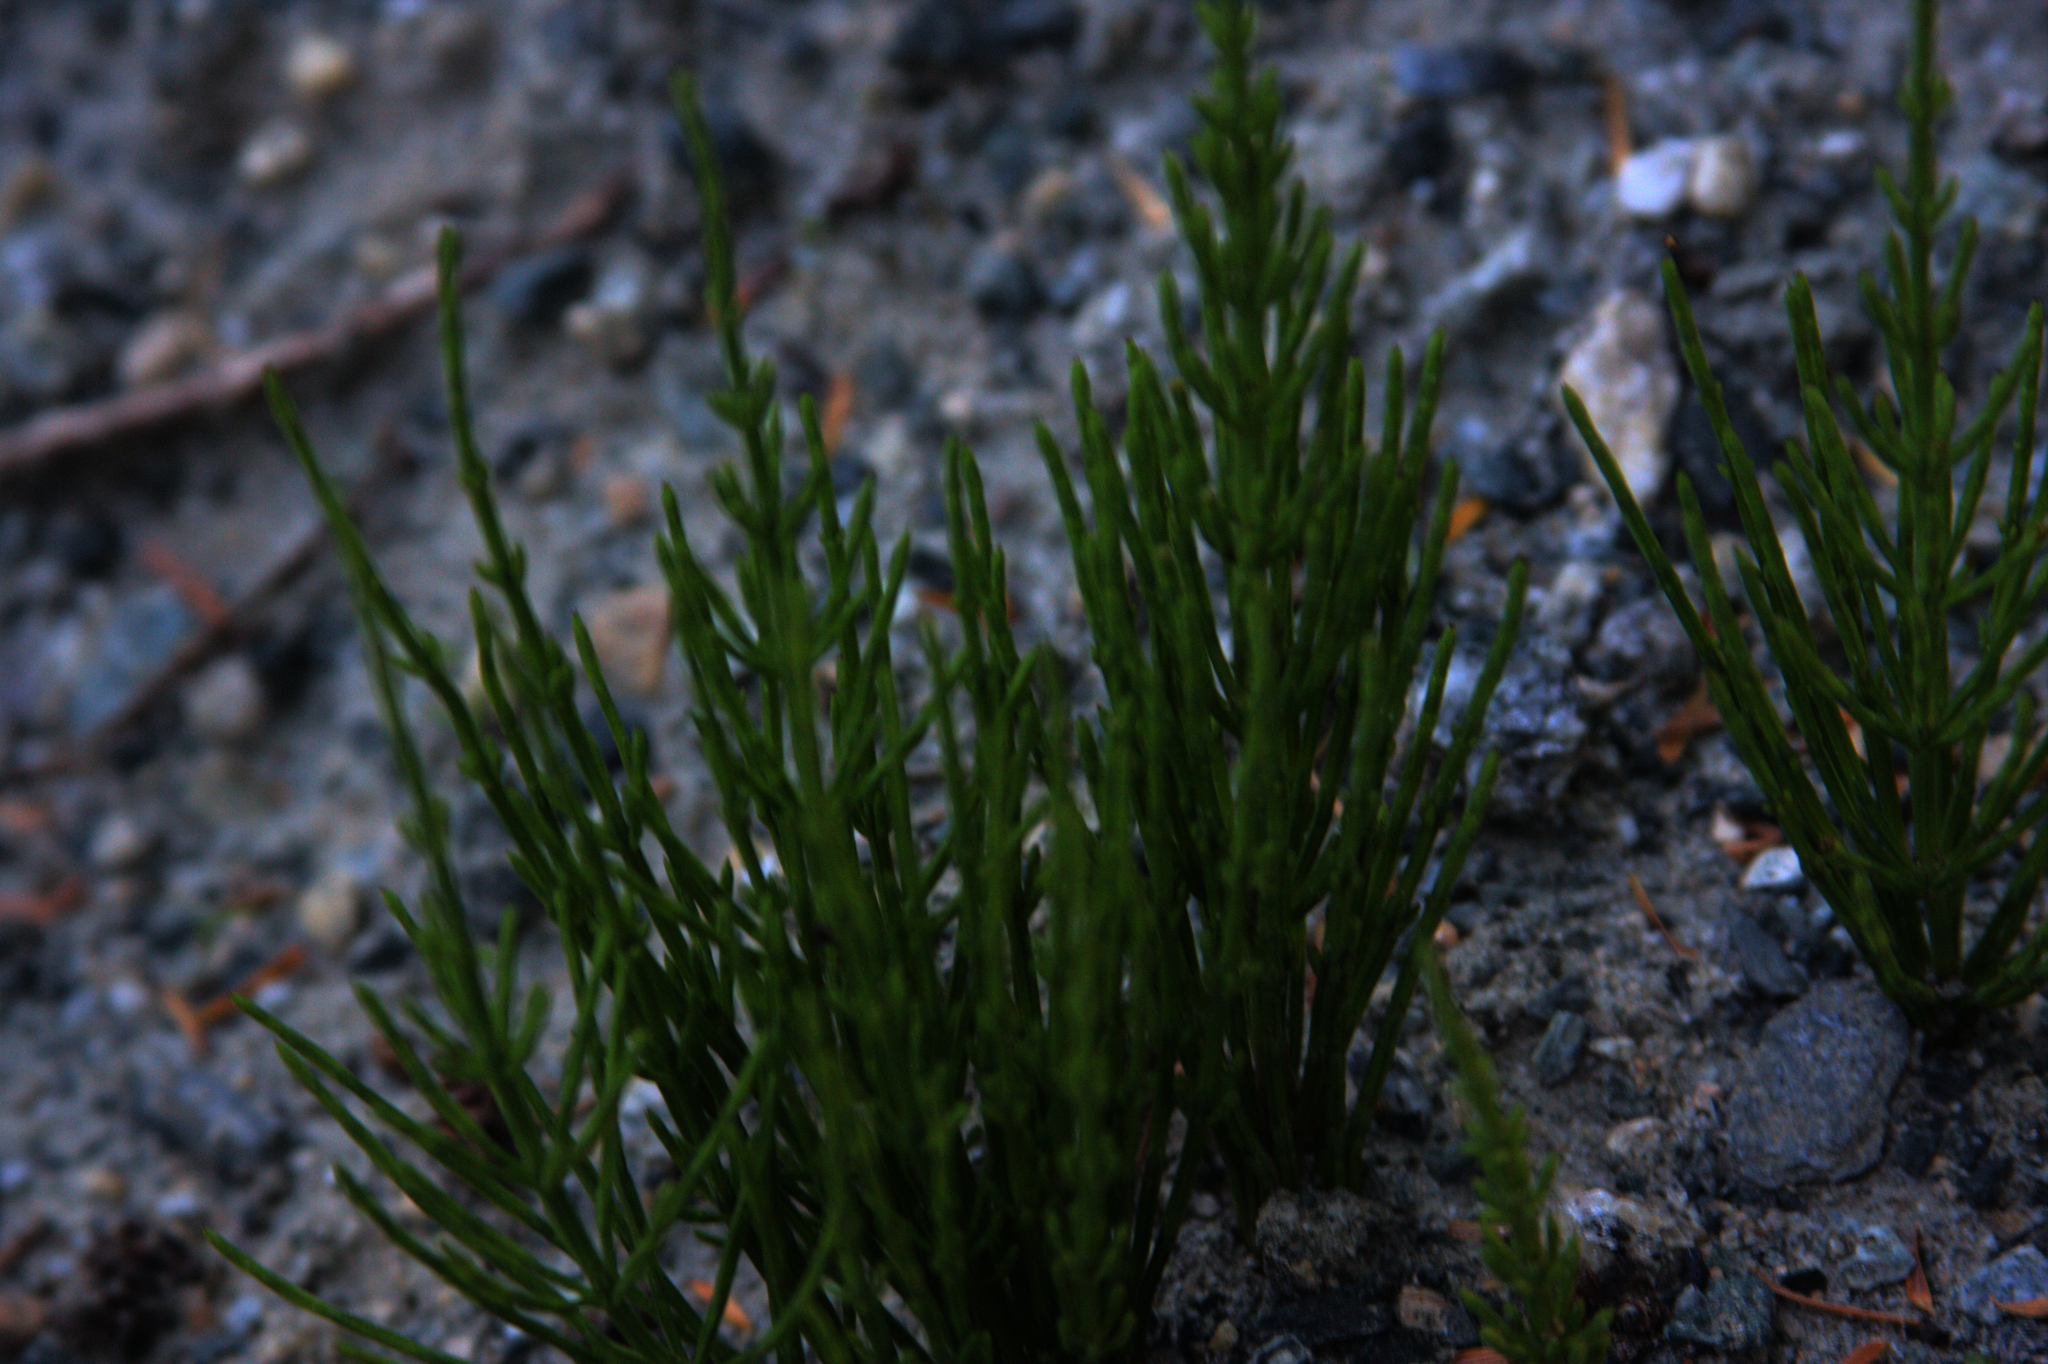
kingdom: Plantae
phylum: Tracheophyta
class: Polypodiopsida
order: Equisetales
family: Equisetaceae
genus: Equisetum
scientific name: Equisetum arvense
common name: Field horsetail
